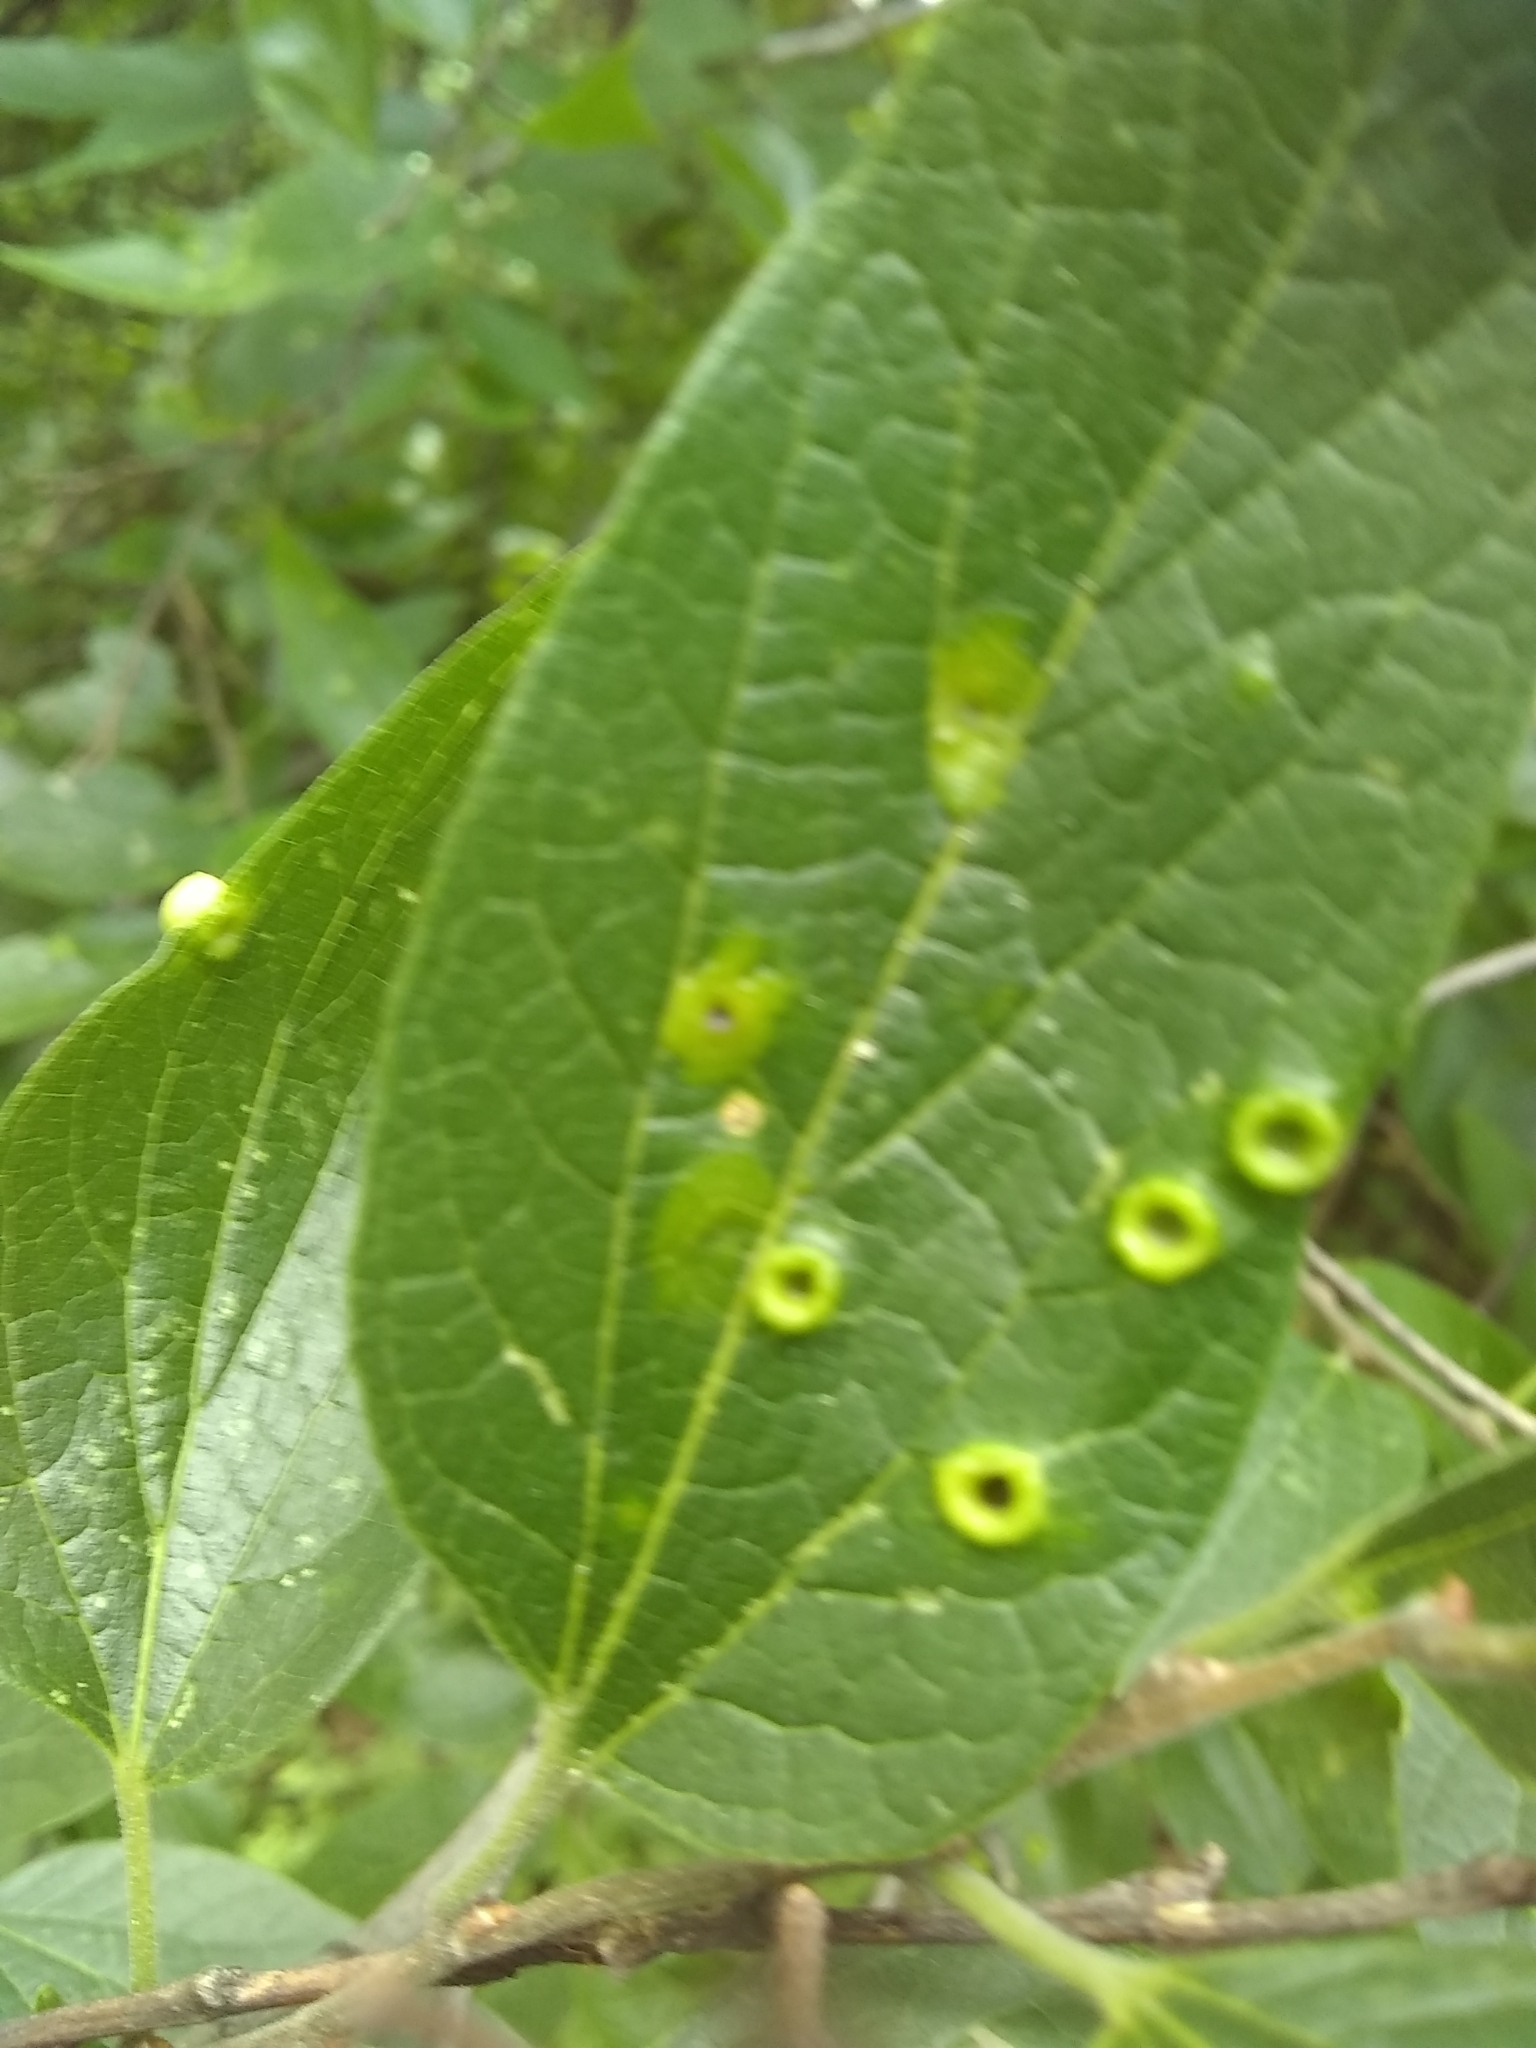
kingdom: Animalia
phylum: Arthropoda
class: Insecta
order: Hemiptera
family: Aphalaridae
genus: Pachypsylla
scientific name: Pachypsylla celtidismamma
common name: Hackberry nipplegall psyllid
